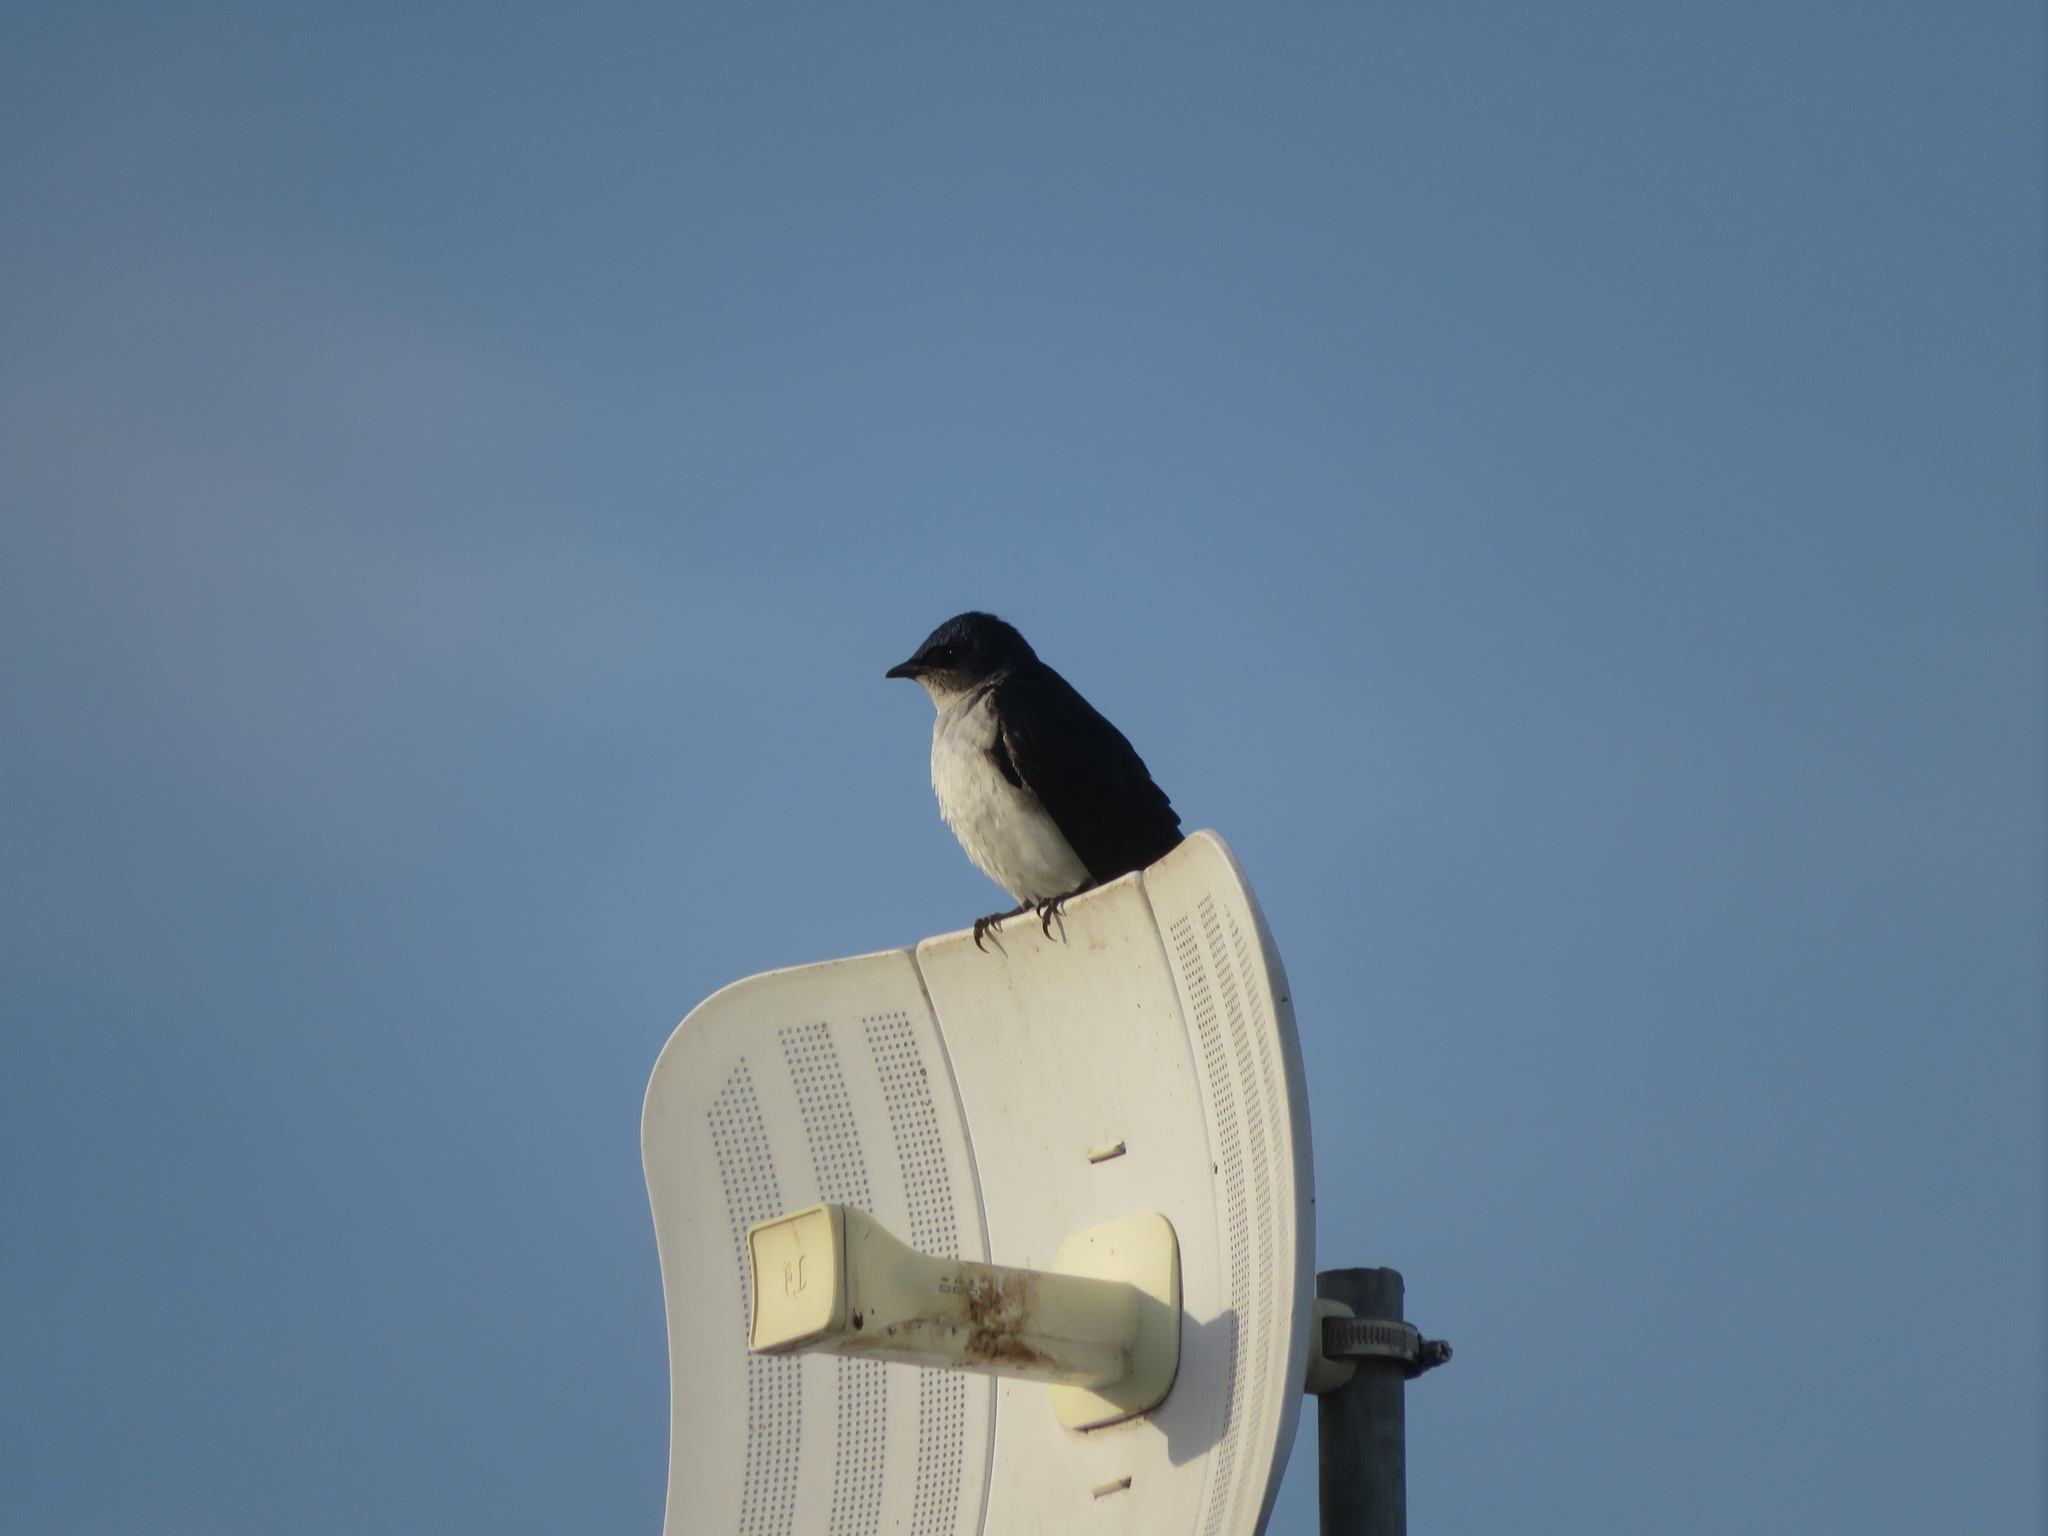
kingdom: Animalia
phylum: Chordata
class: Aves
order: Passeriformes
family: Hirundinidae
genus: Progne
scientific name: Progne chalybea
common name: Grey-breasted martin
